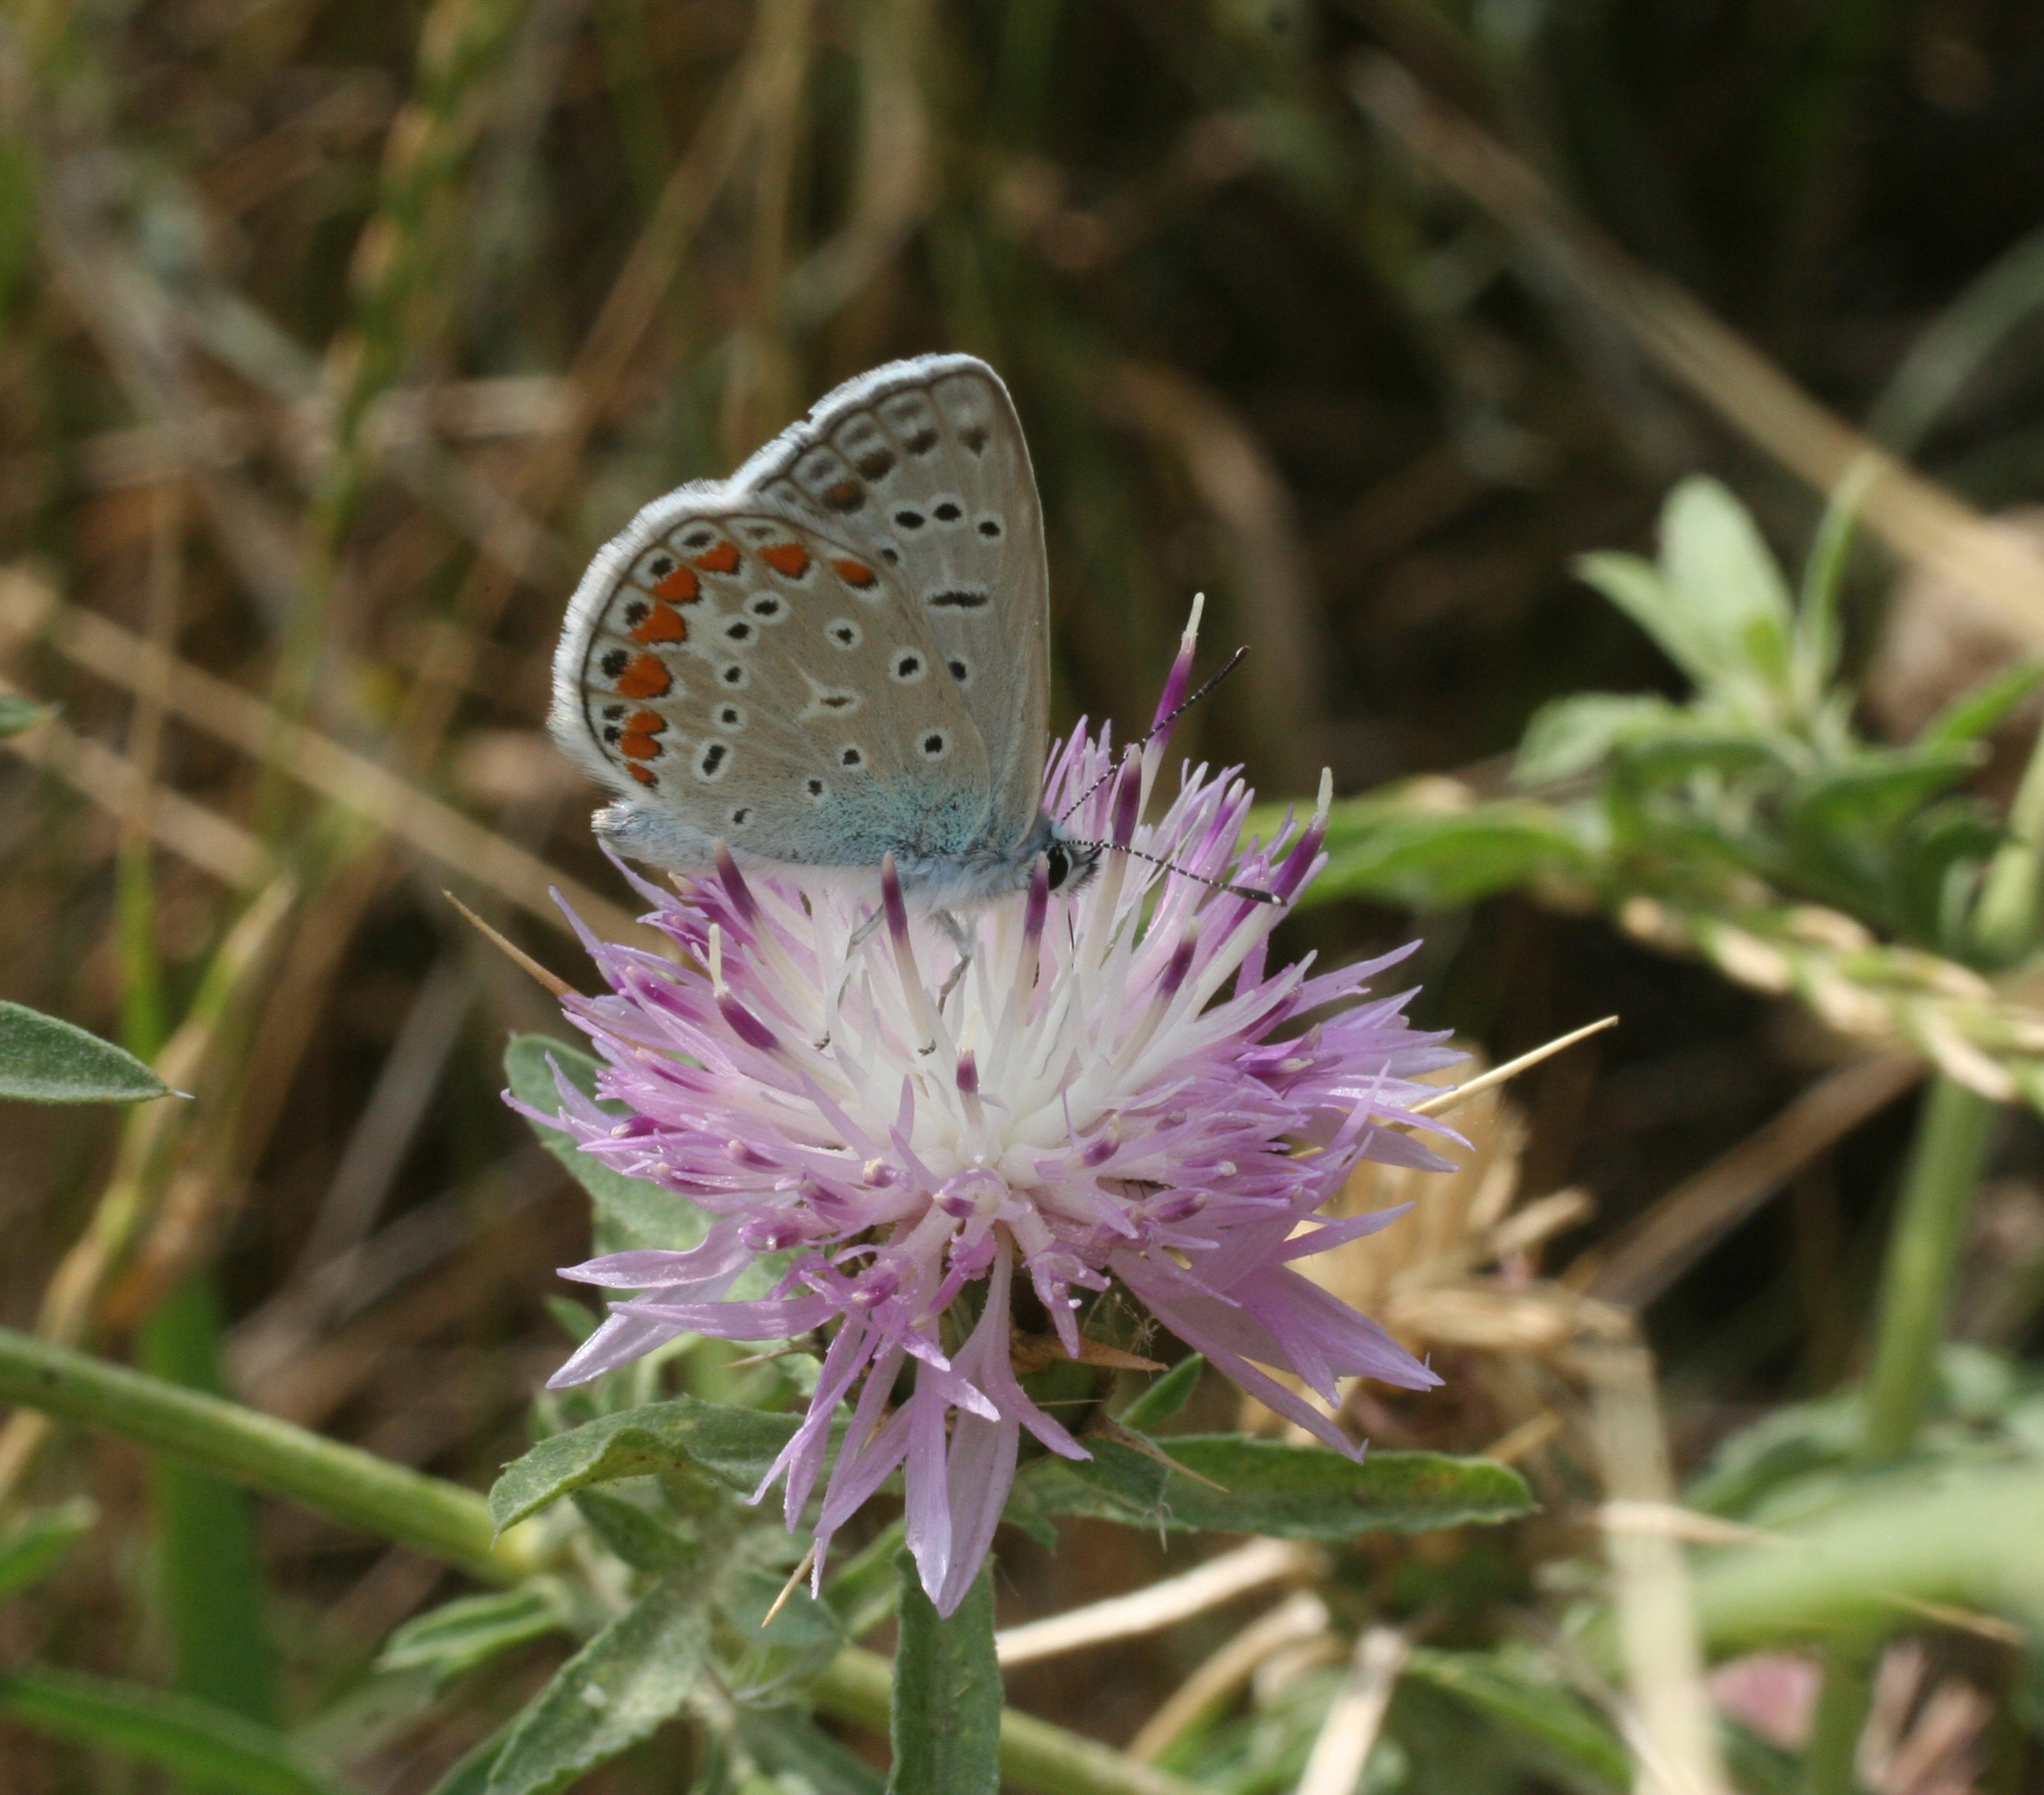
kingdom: Animalia
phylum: Arthropoda
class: Insecta
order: Lepidoptera
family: Lycaenidae
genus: Polyommatus
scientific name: Polyommatus icarus
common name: Common blue
